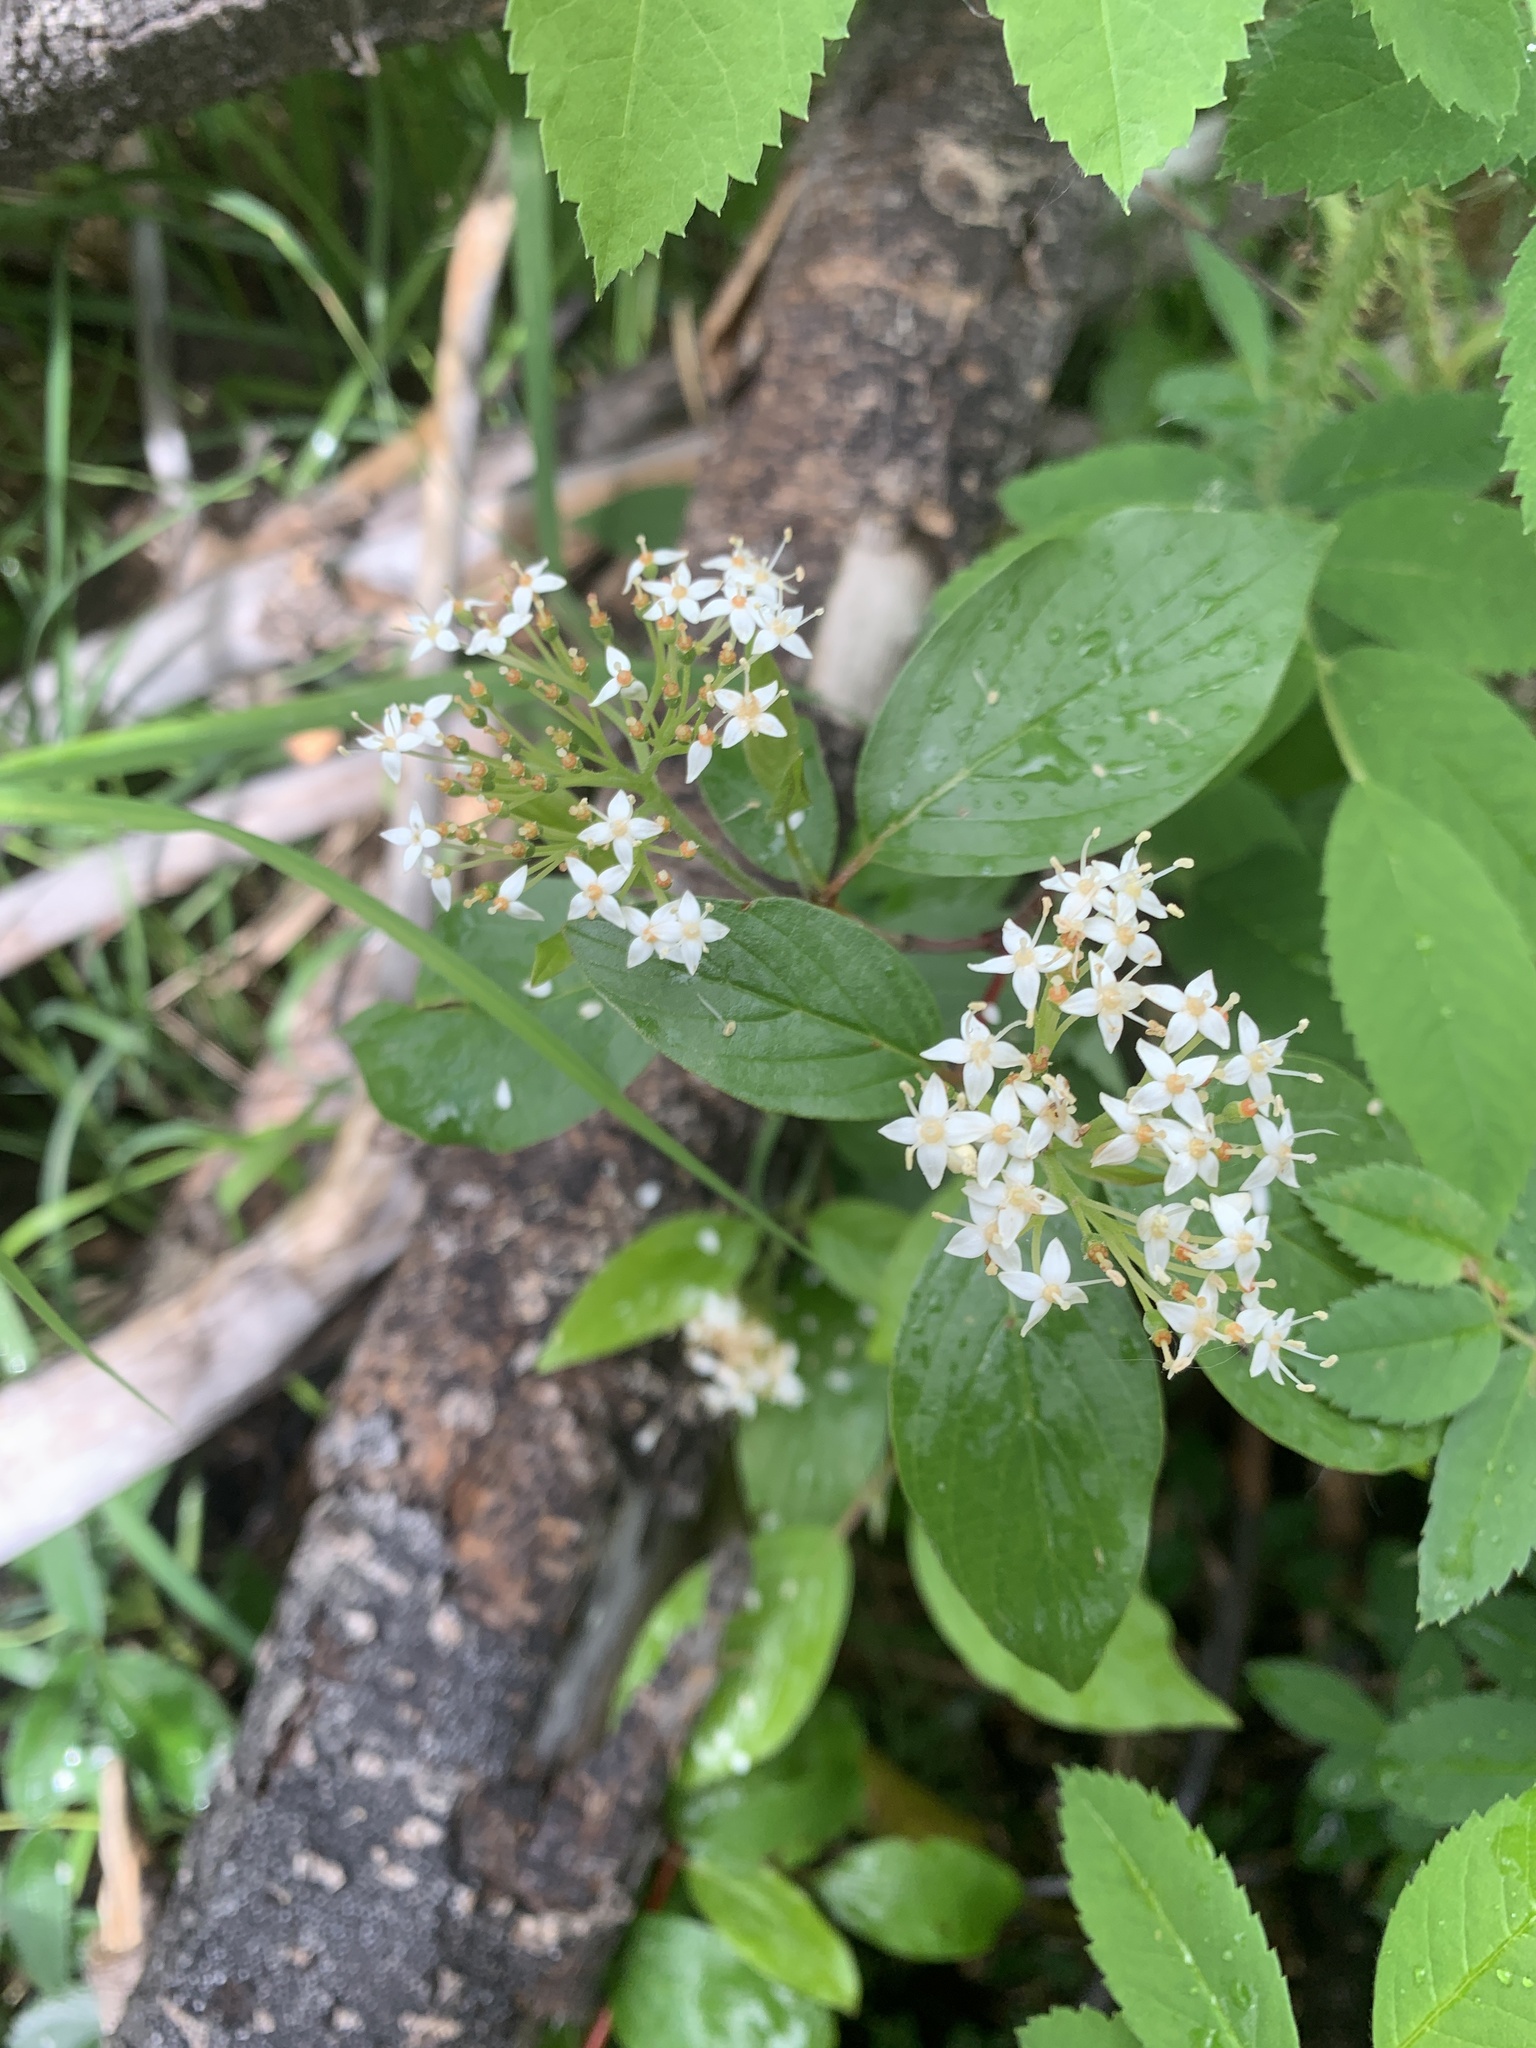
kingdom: Plantae
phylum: Tracheophyta
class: Magnoliopsida
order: Cornales
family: Cornaceae
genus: Cornus
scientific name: Cornus sericea
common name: Red-osier dogwood
